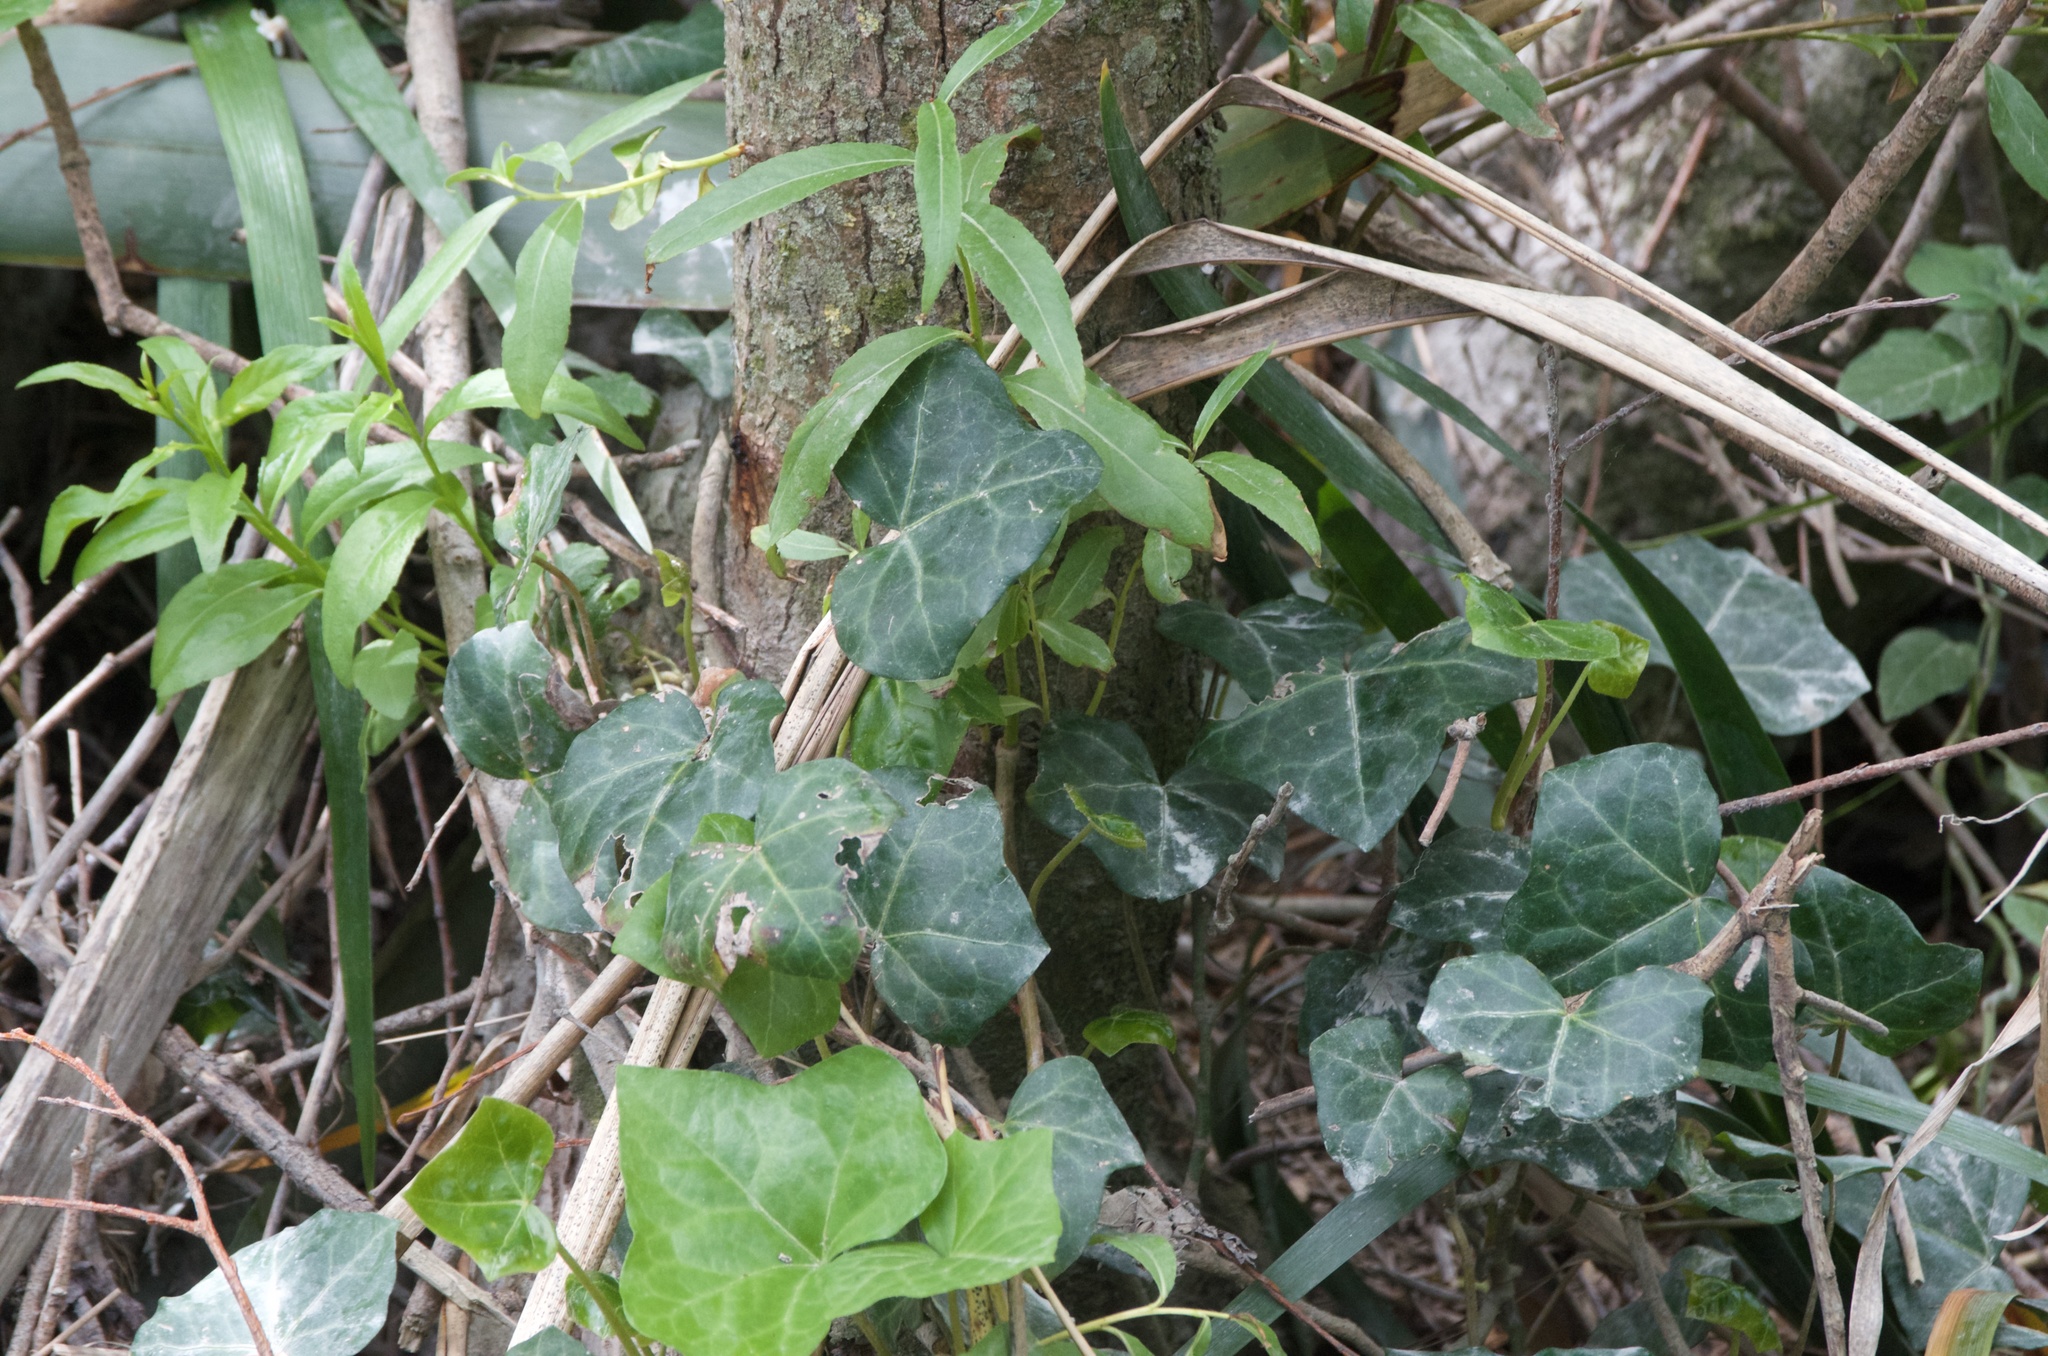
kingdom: Plantae
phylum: Tracheophyta
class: Magnoliopsida
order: Apiales
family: Araliaceae
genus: Hedera
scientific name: Hedera helix
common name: Ivy
